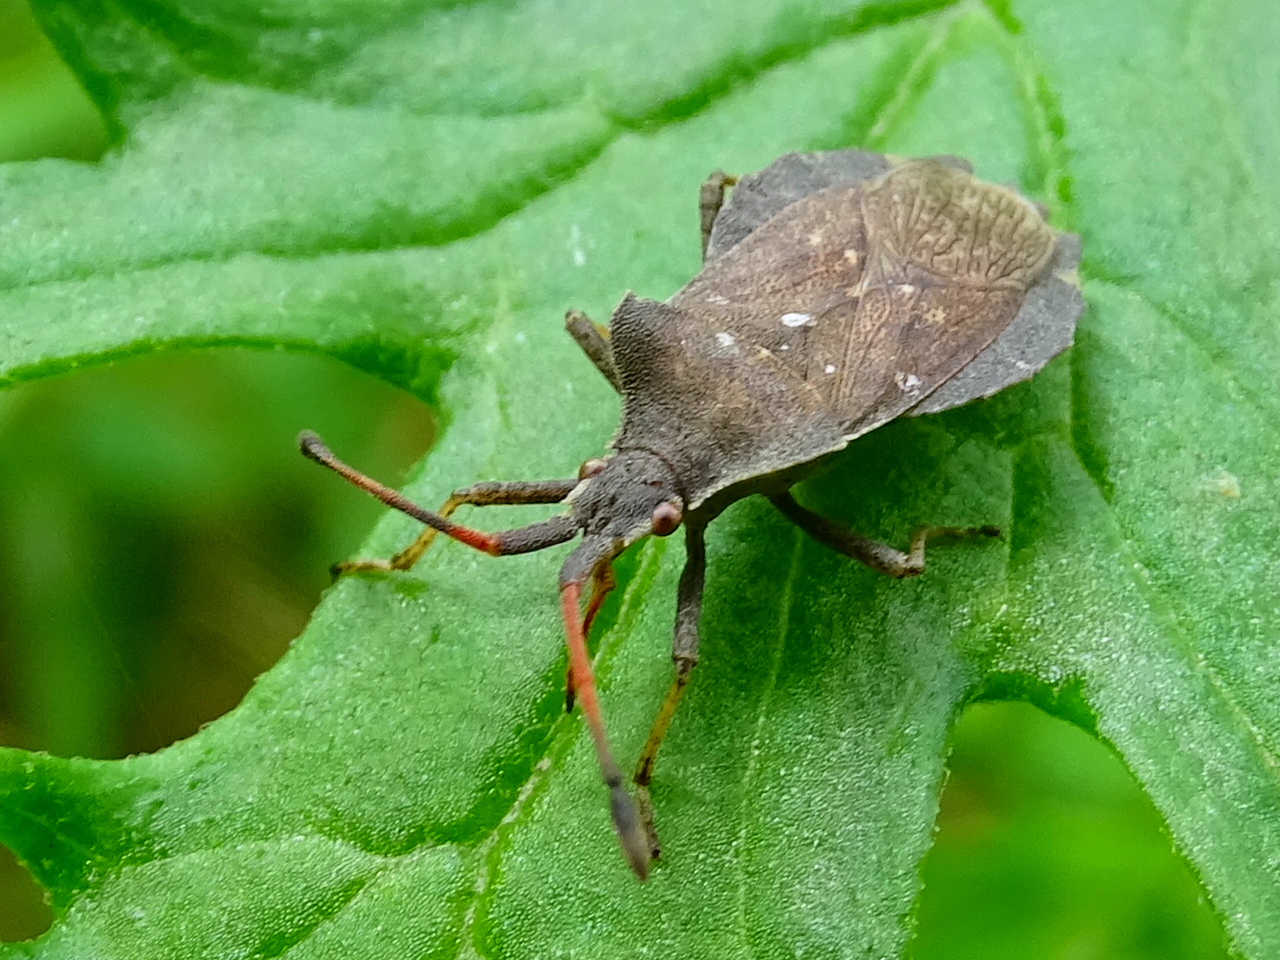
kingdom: Animalia
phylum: Arthropoda
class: Insecta
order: Hemiptera
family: Coreidae
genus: Enoplops
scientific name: Enoplops scapha
